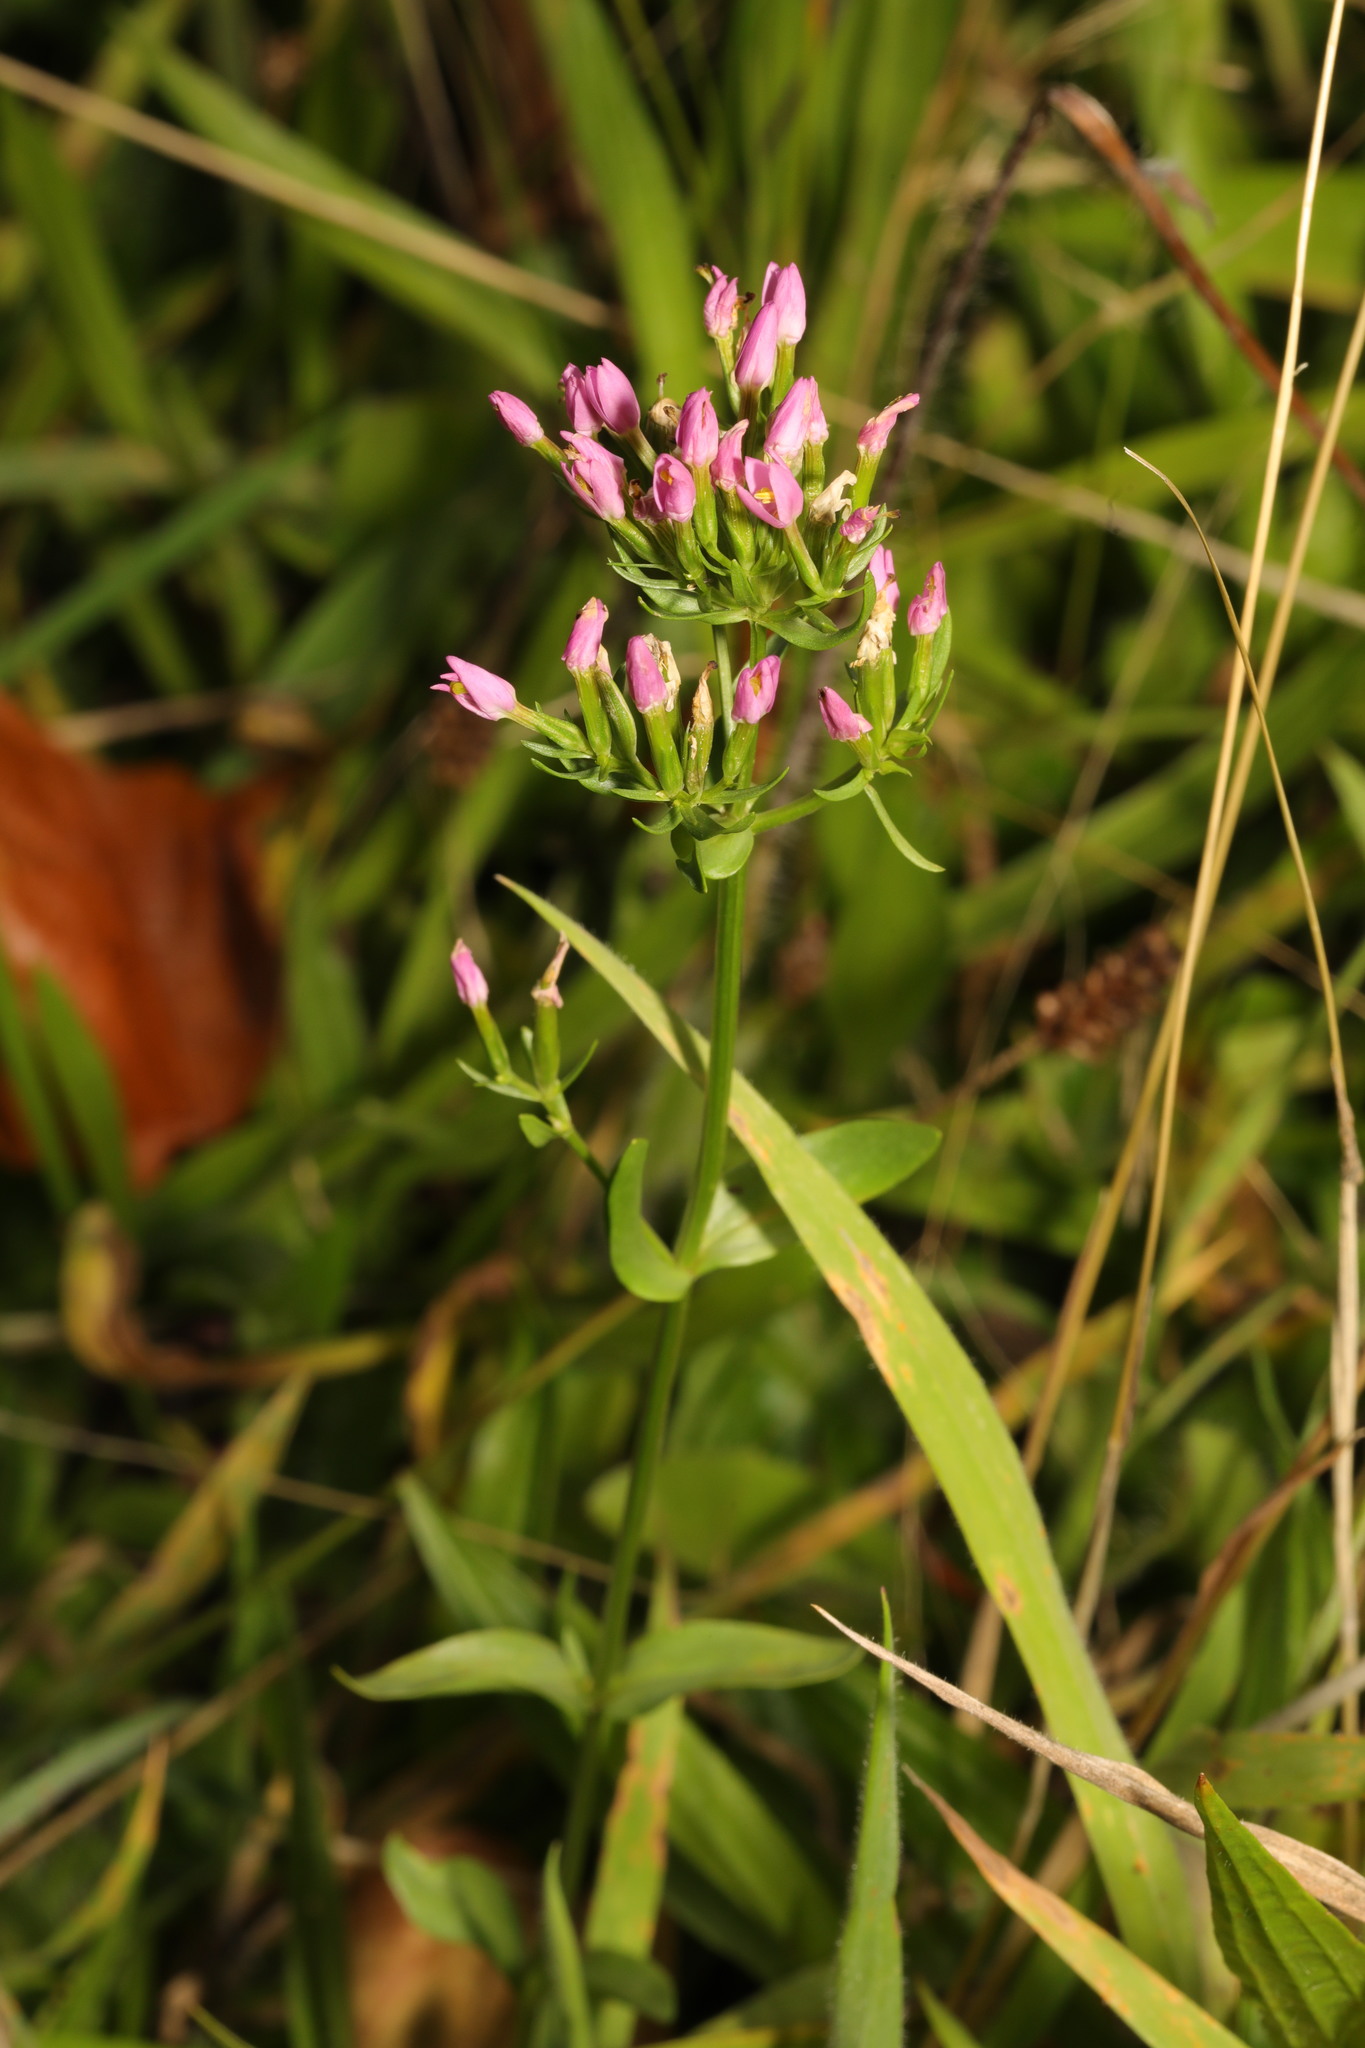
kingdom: Plantae
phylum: Tracheophyta
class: Magnoliopsida
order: Gentianales
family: Gentianaceae
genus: Centaurium
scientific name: Centaurium erythraea
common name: Common centaury
